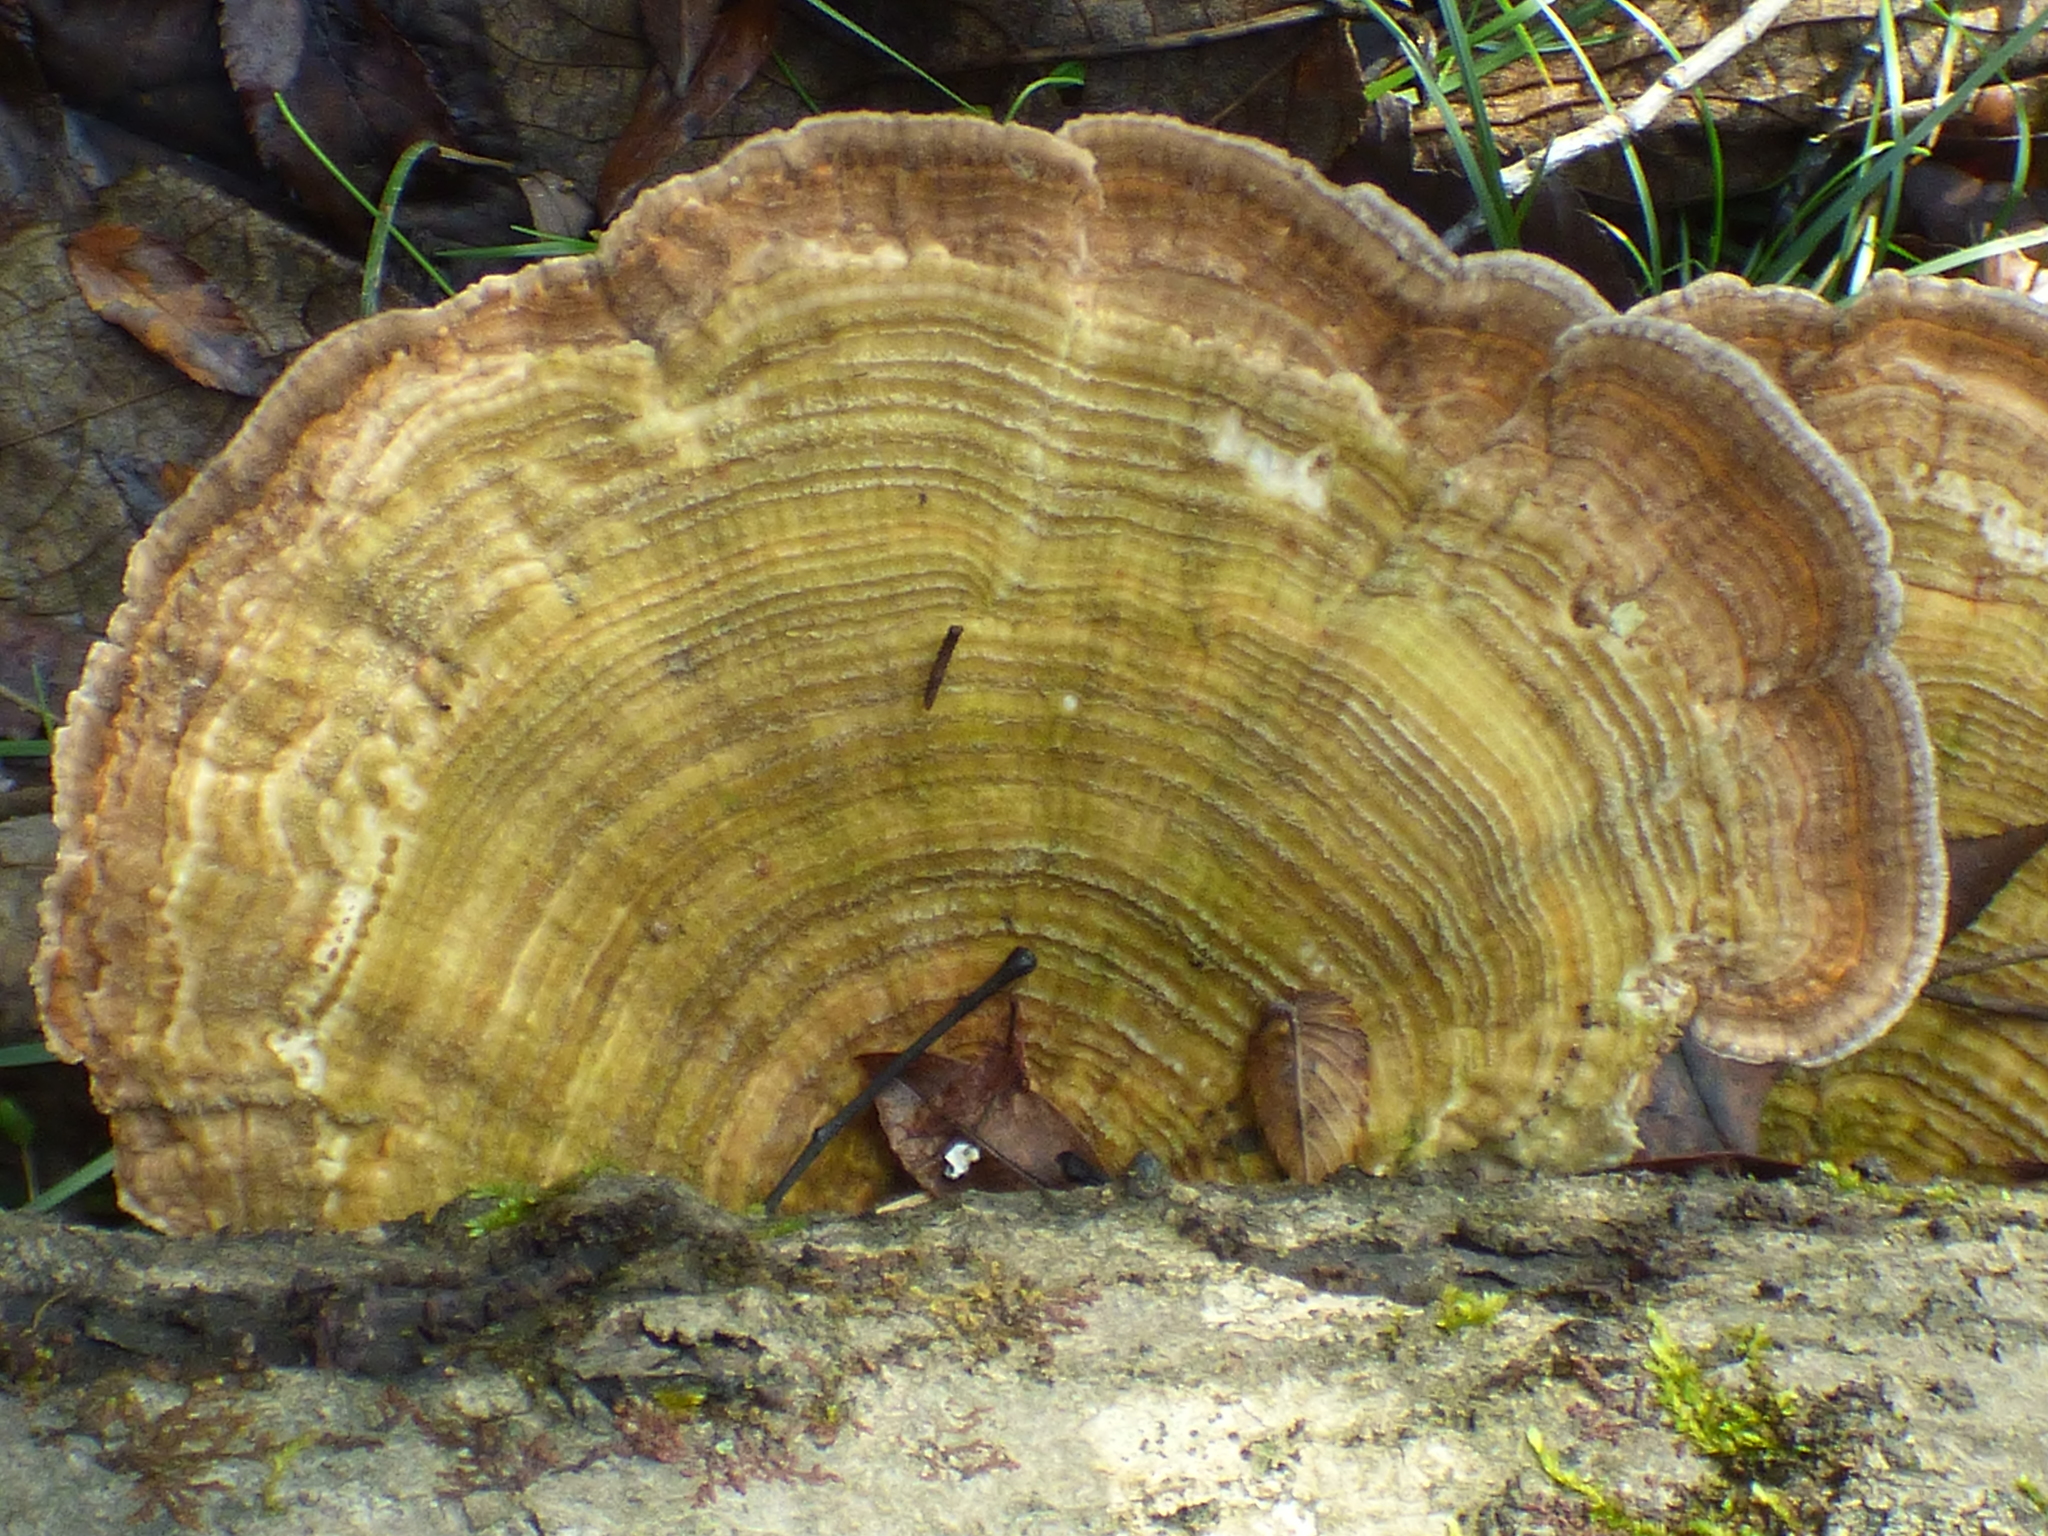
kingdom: Fungi
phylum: Basidiomycota
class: Agaricomycetes
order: Polyporales
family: Polyporaceae
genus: Lenzites
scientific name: Lenzites betulinus
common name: Birch mazegill
